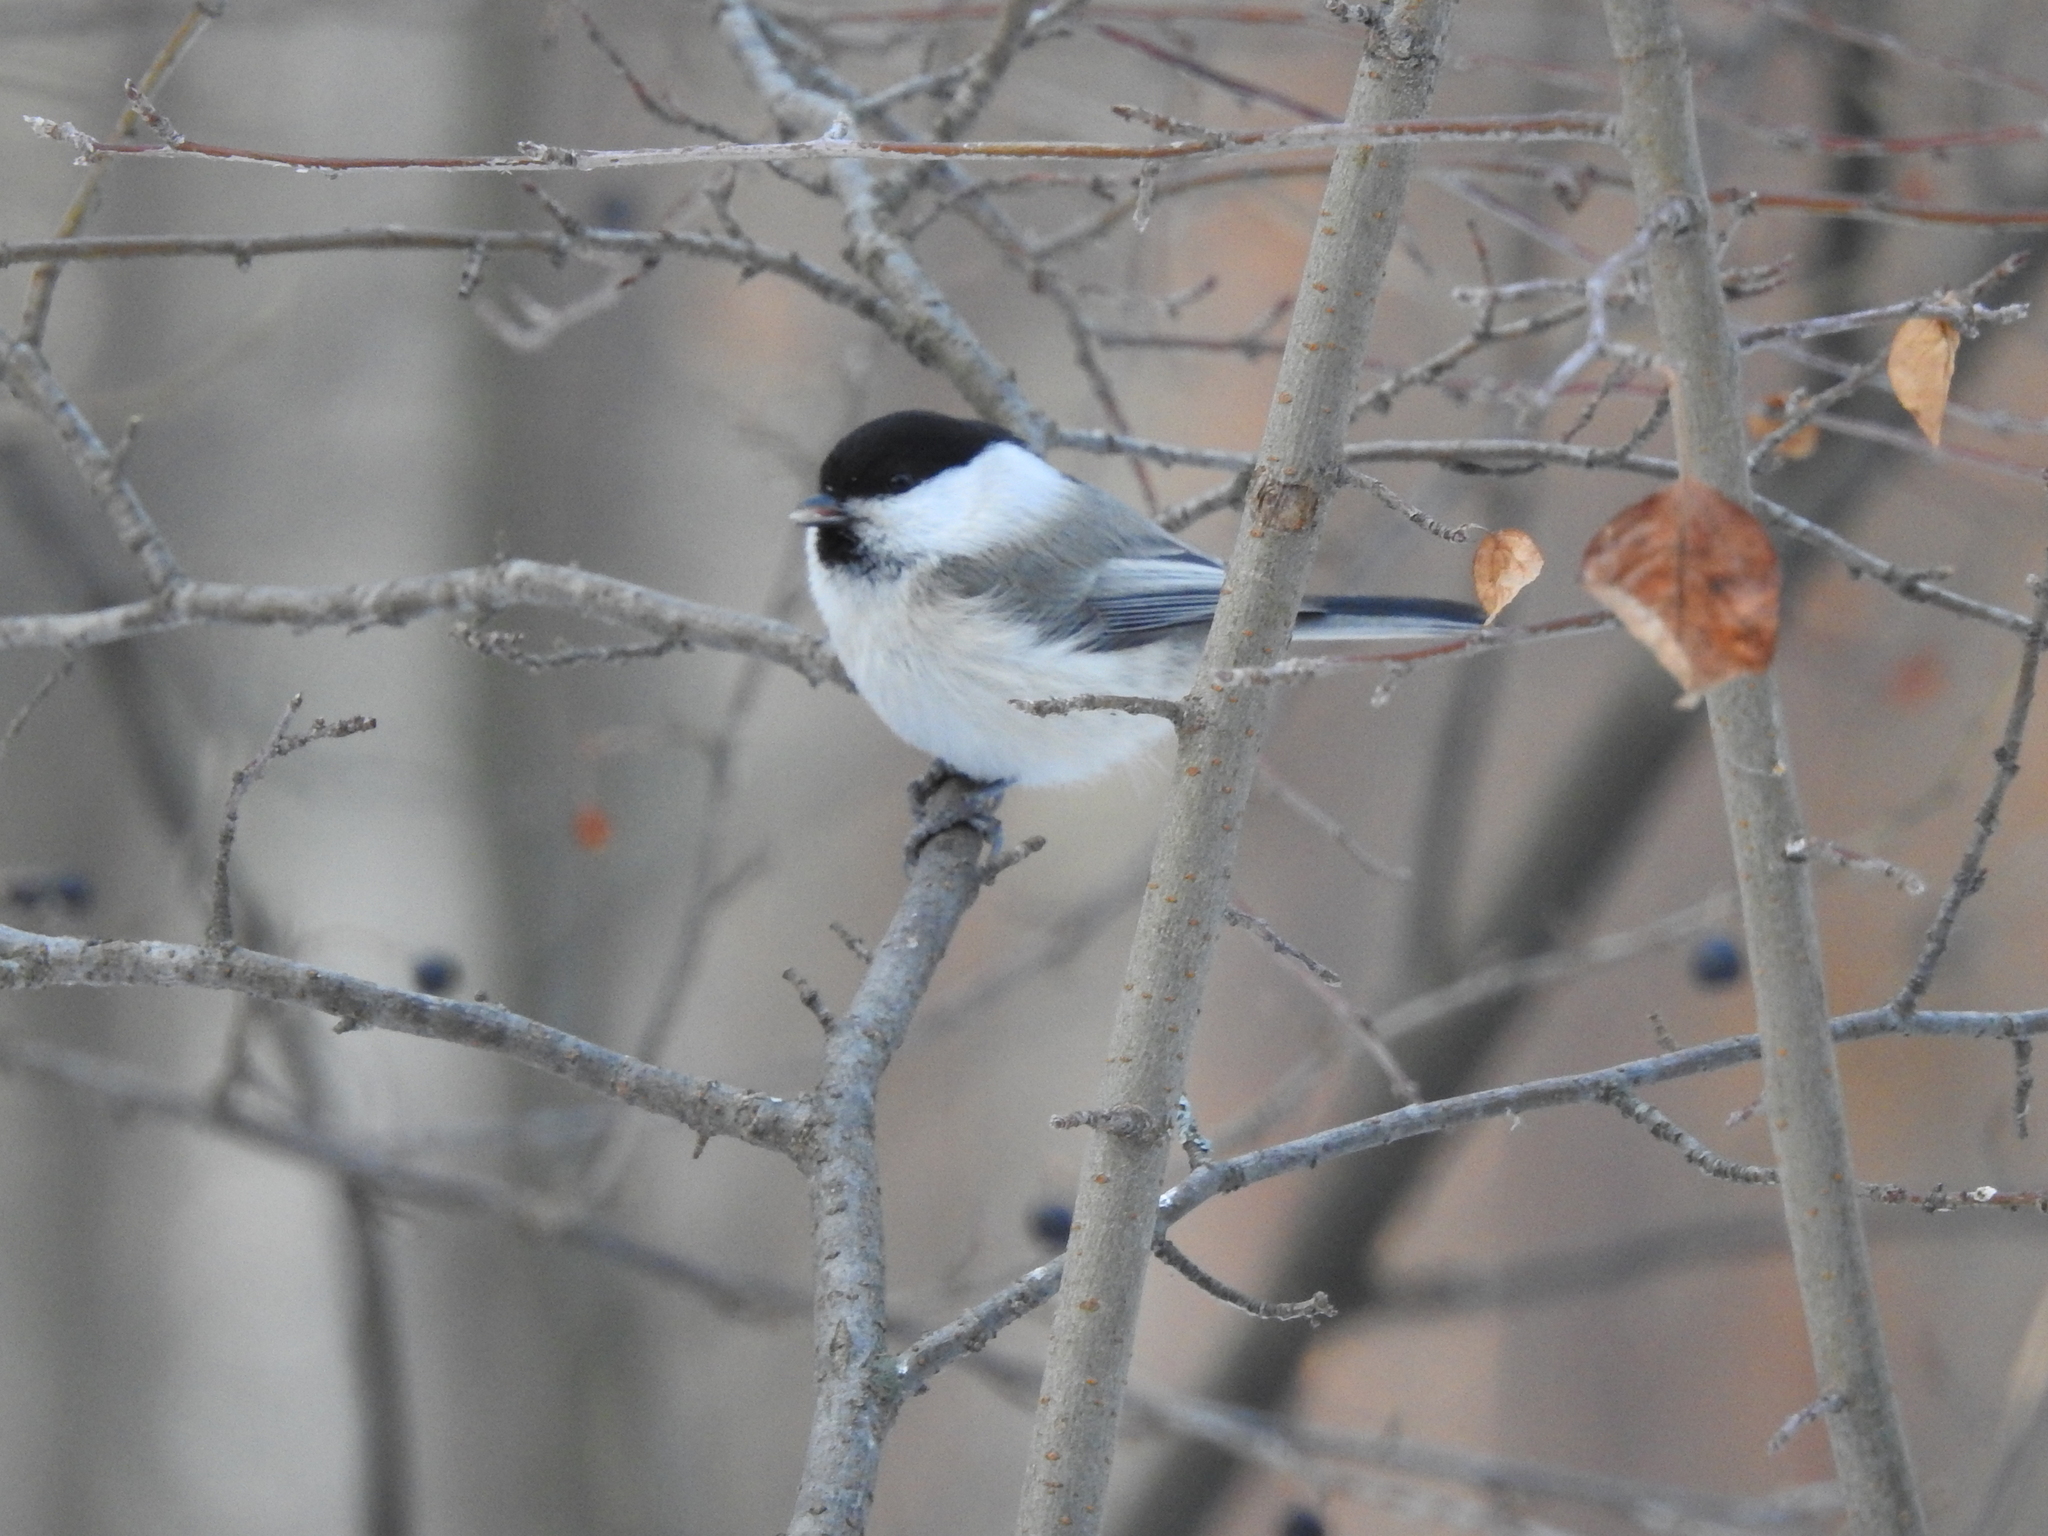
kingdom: Animalia
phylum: Chordata
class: Aves
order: Passeriformes
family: Paridae
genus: Poecile
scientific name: Poecile montanus
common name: Willow tit
